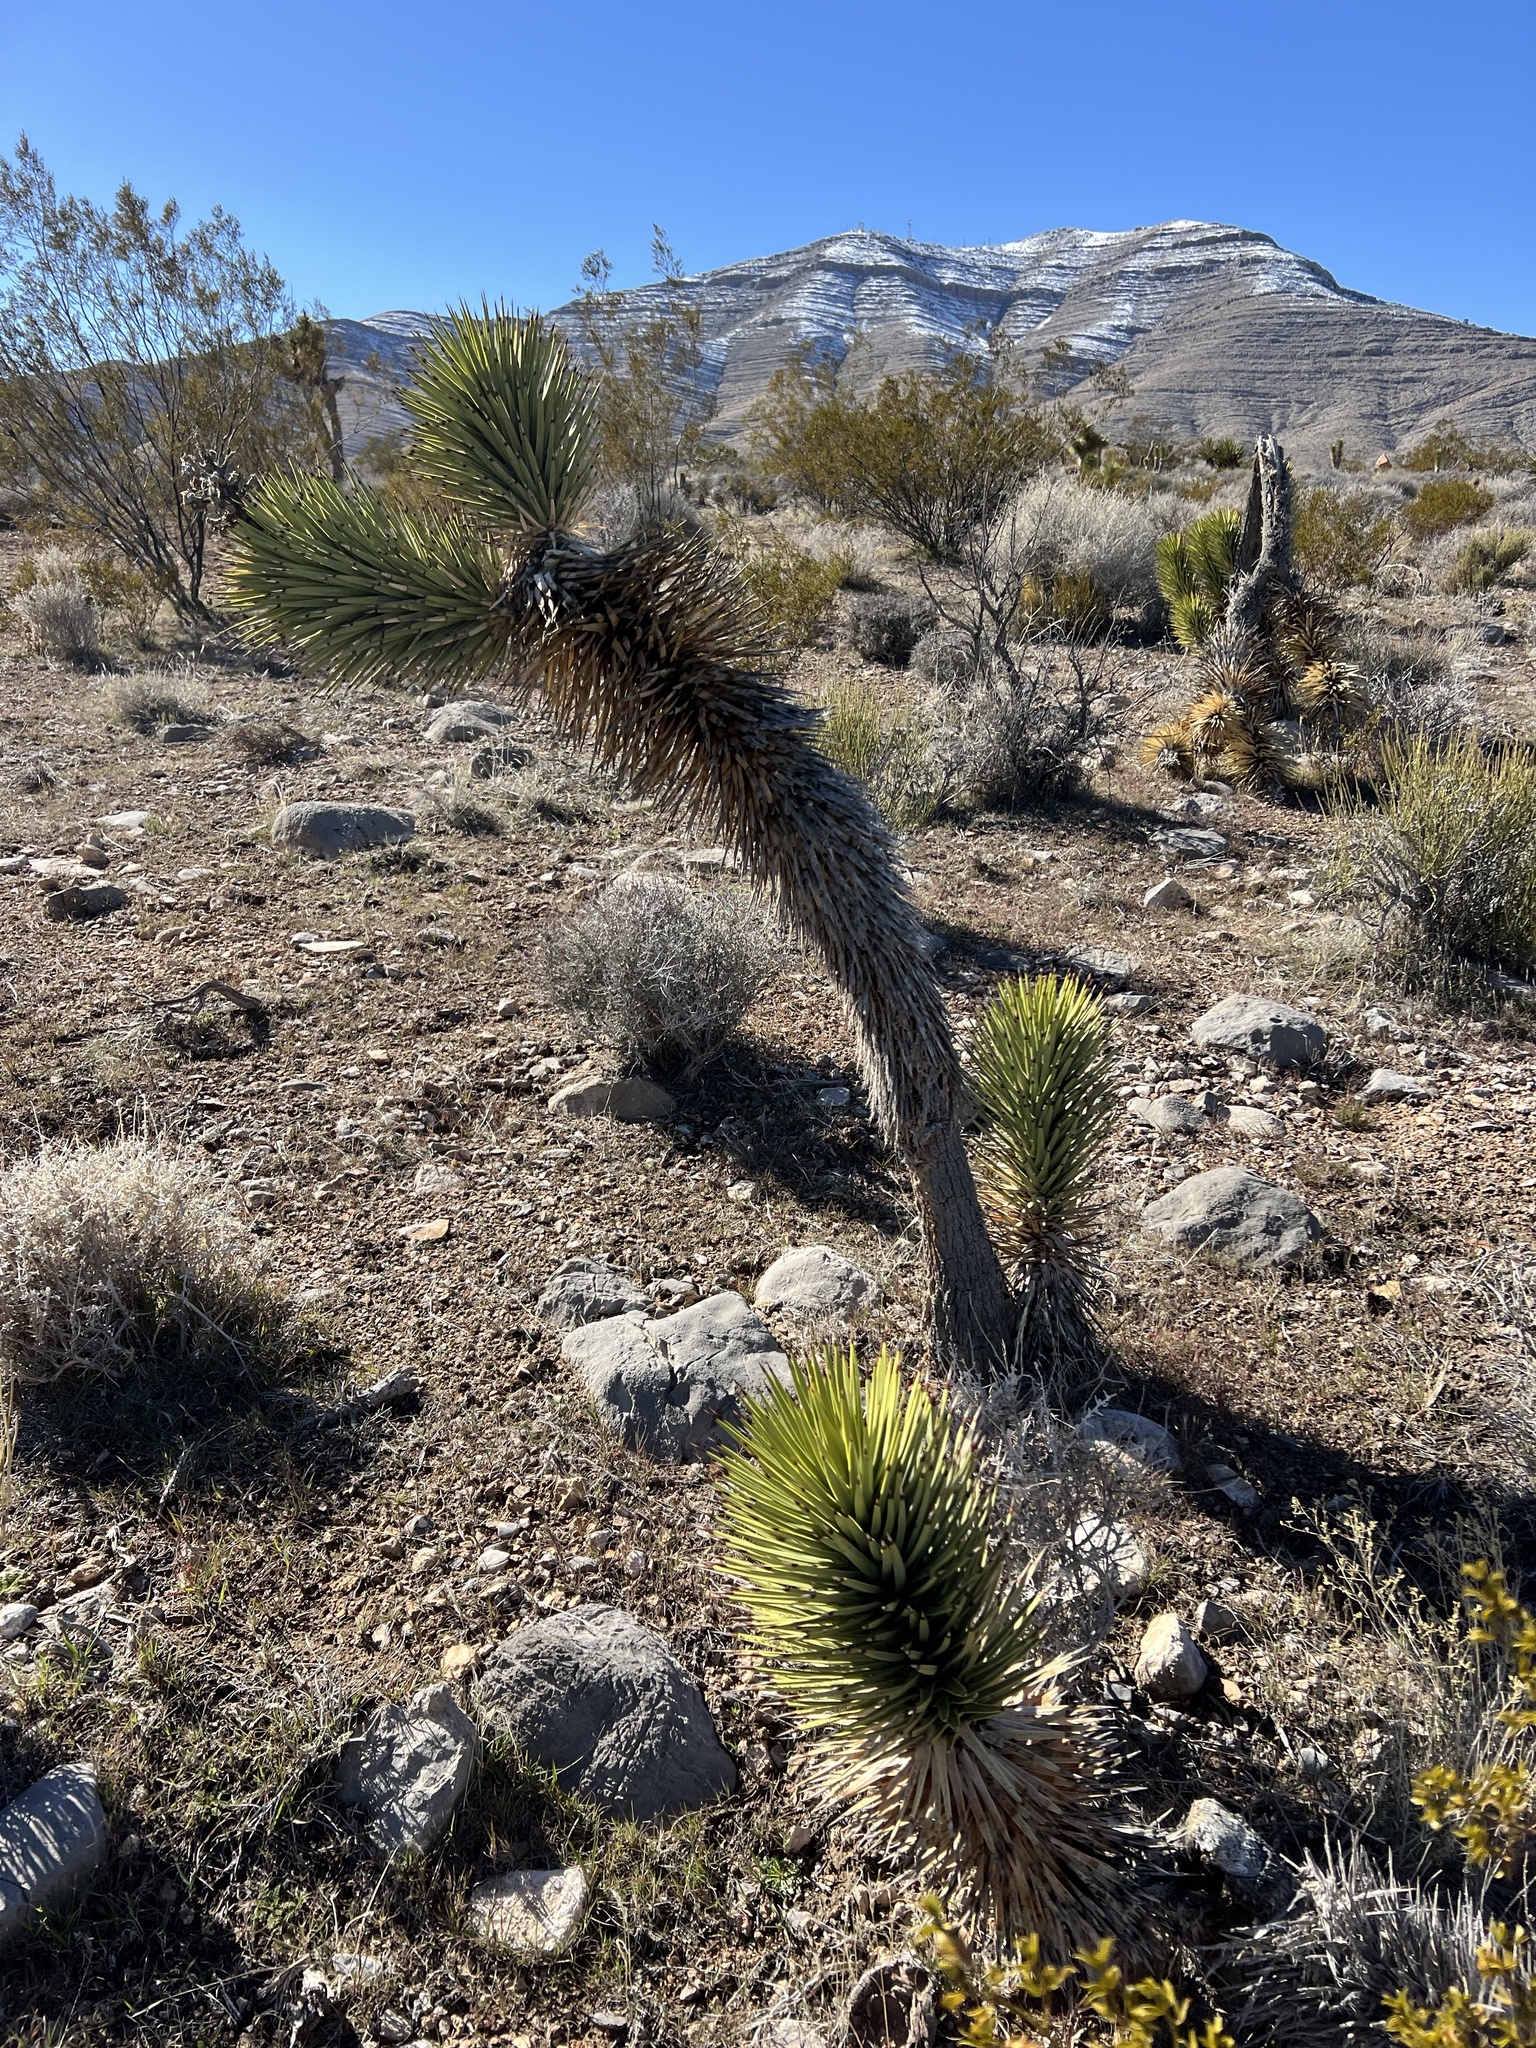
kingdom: Plantae
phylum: Tracheophyta
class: Liliopsida
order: Asparagales
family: Asparagaceae
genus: Yucca
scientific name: Yucca brevifolia
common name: Joshua tree
